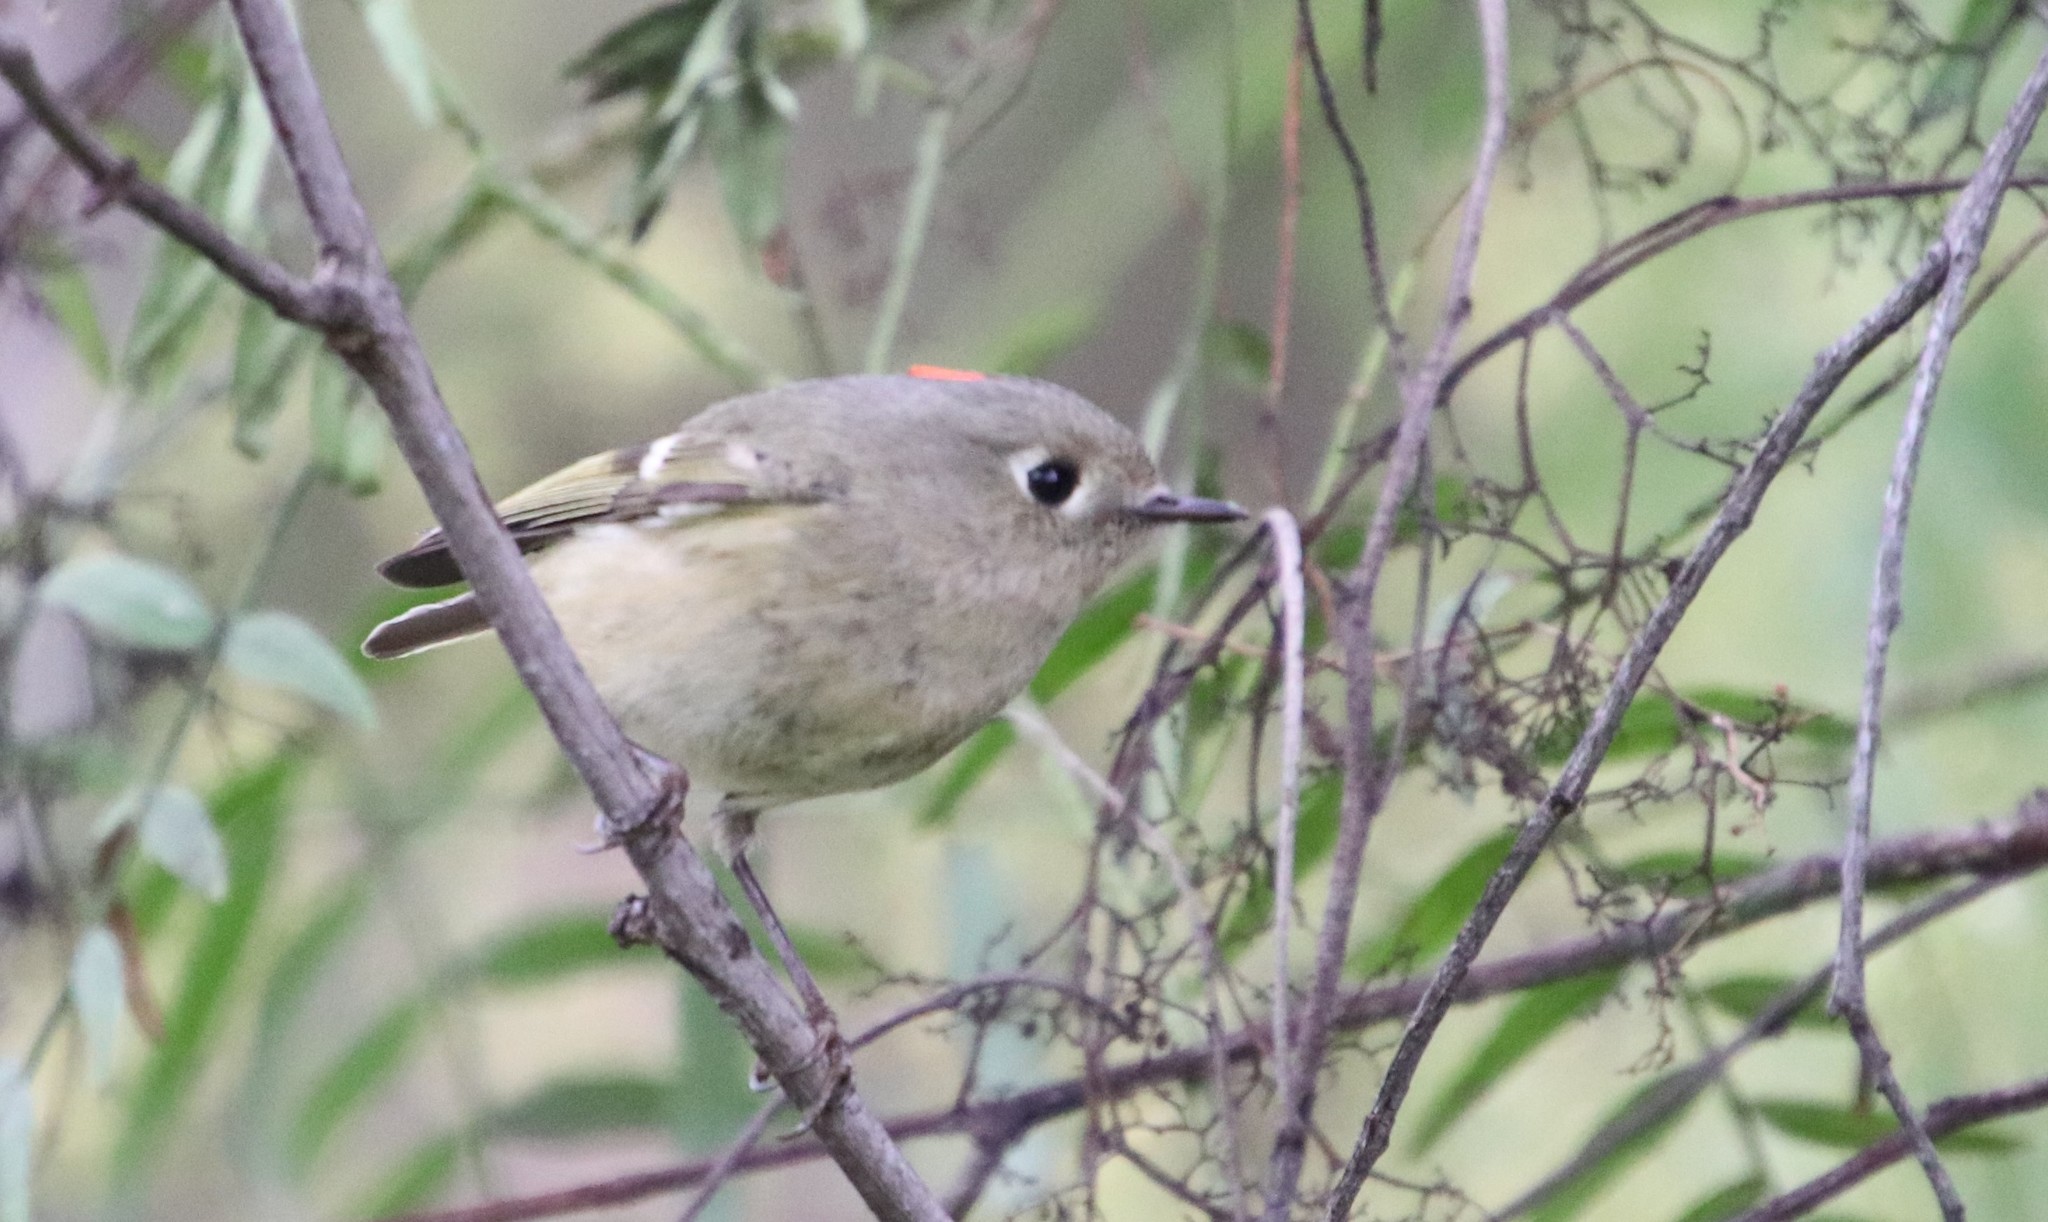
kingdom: Animalia
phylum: Chordata
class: Aves
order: Passeriformes
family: Regulidae
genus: Regulus
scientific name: Regulus calendula
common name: Ruby-crowned kinglet
